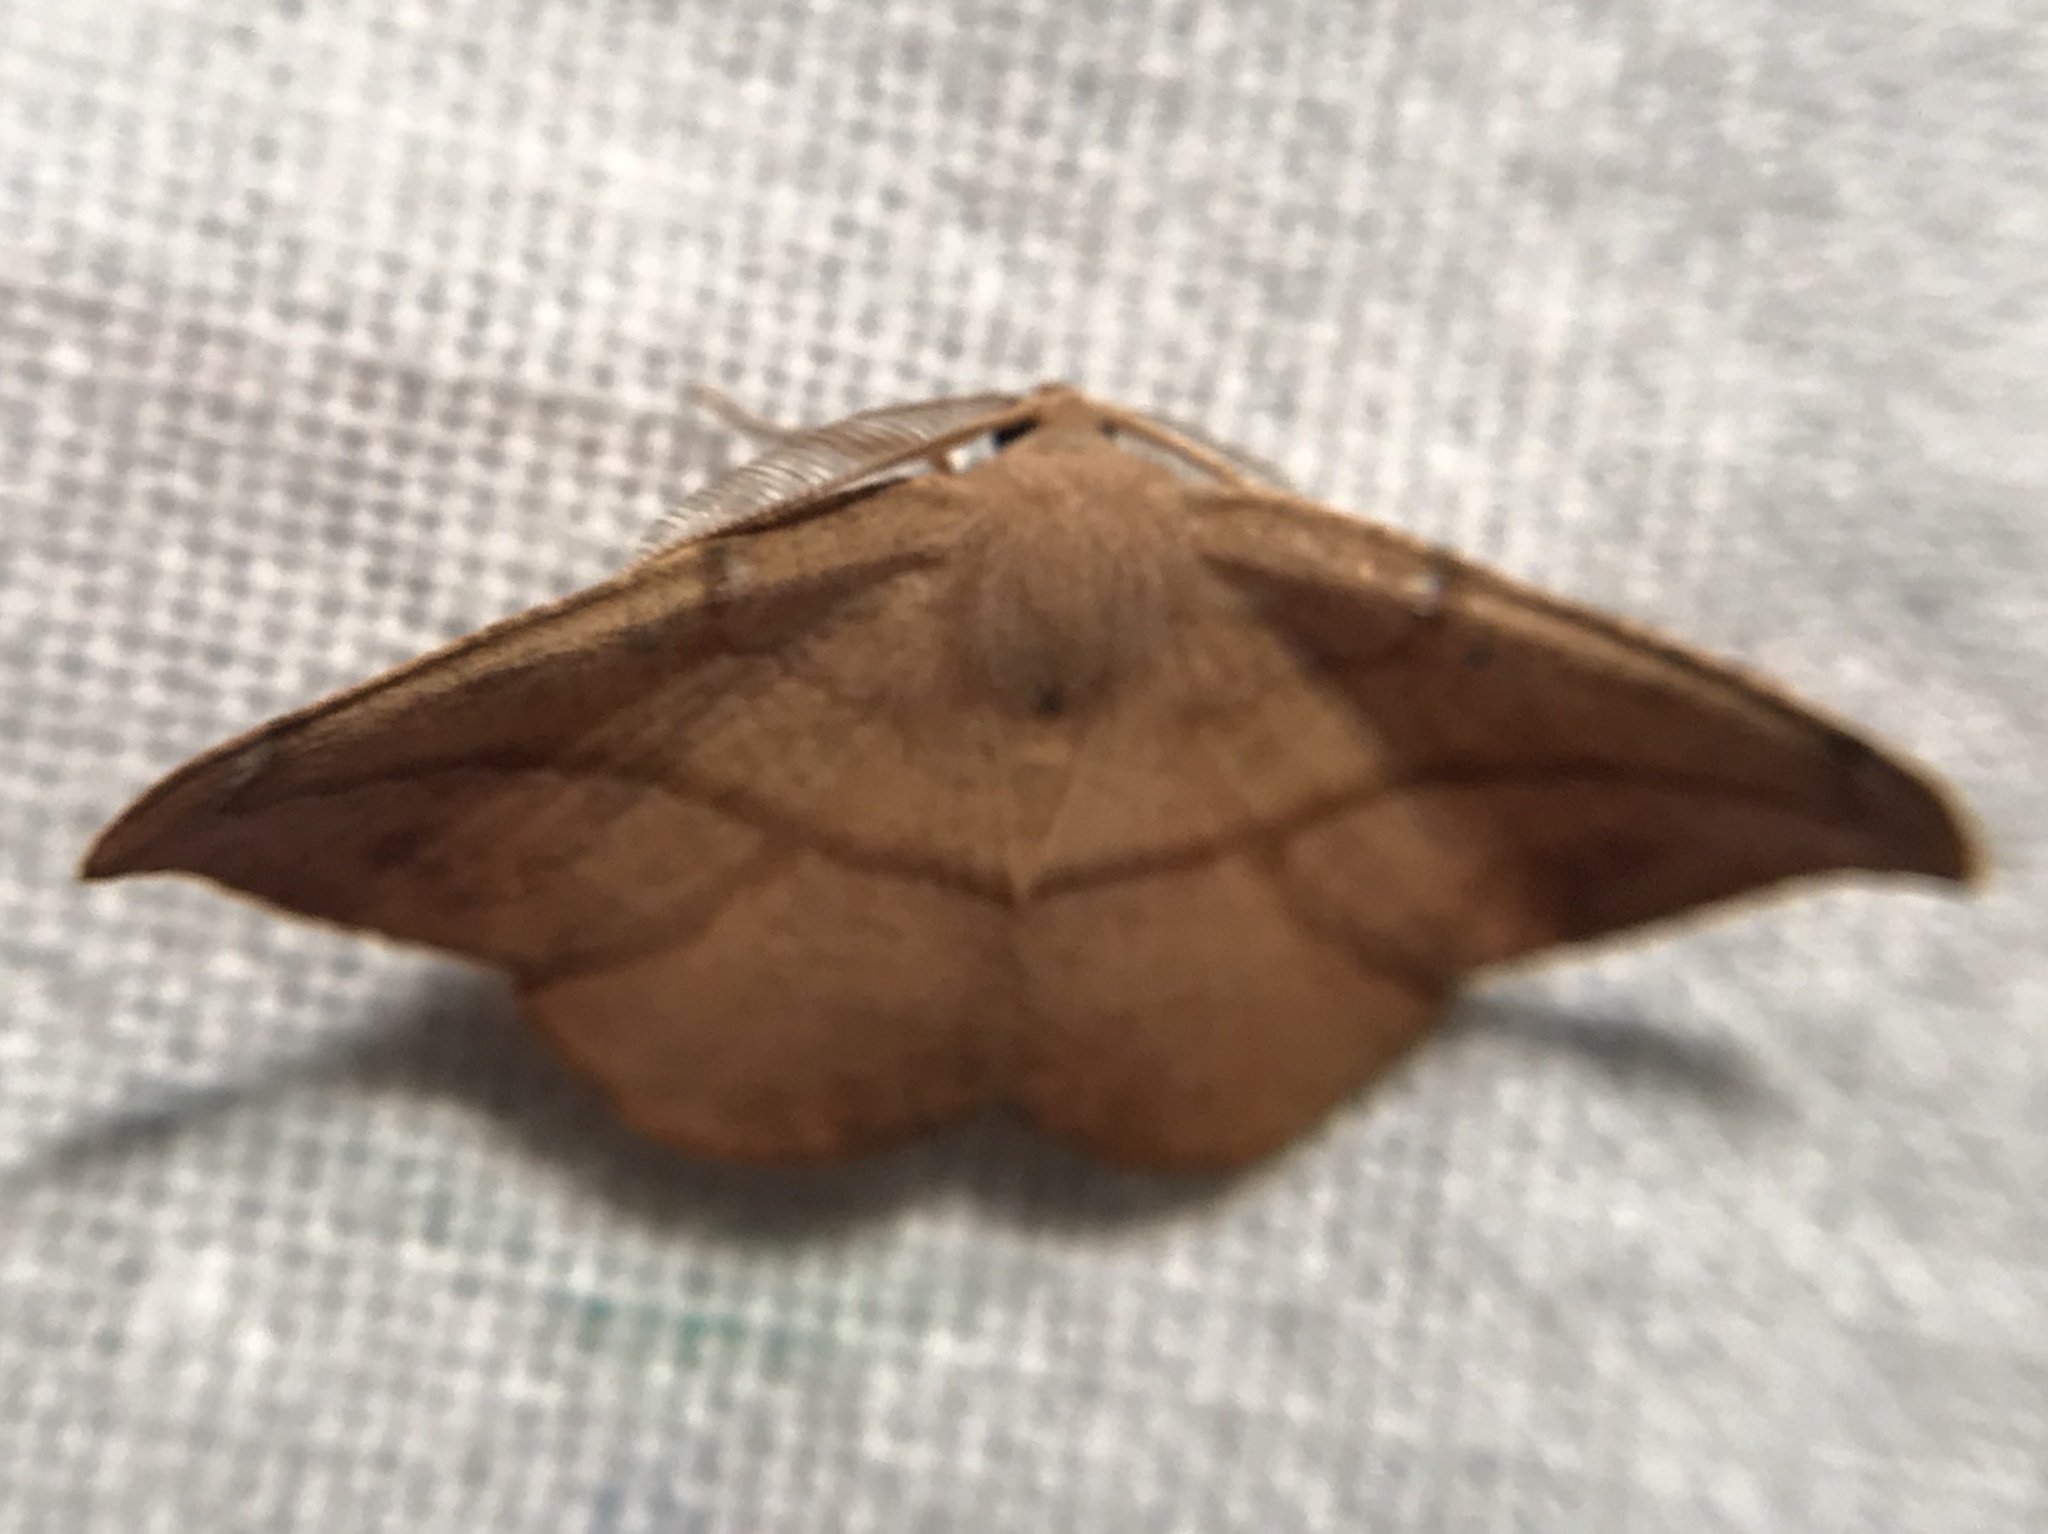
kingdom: Animalia
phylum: Arthropoda
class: Insecta
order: Lepidoptera
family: Geometridae
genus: Patalene
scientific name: Patalene olyzonaria
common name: Juniper geometer moth
